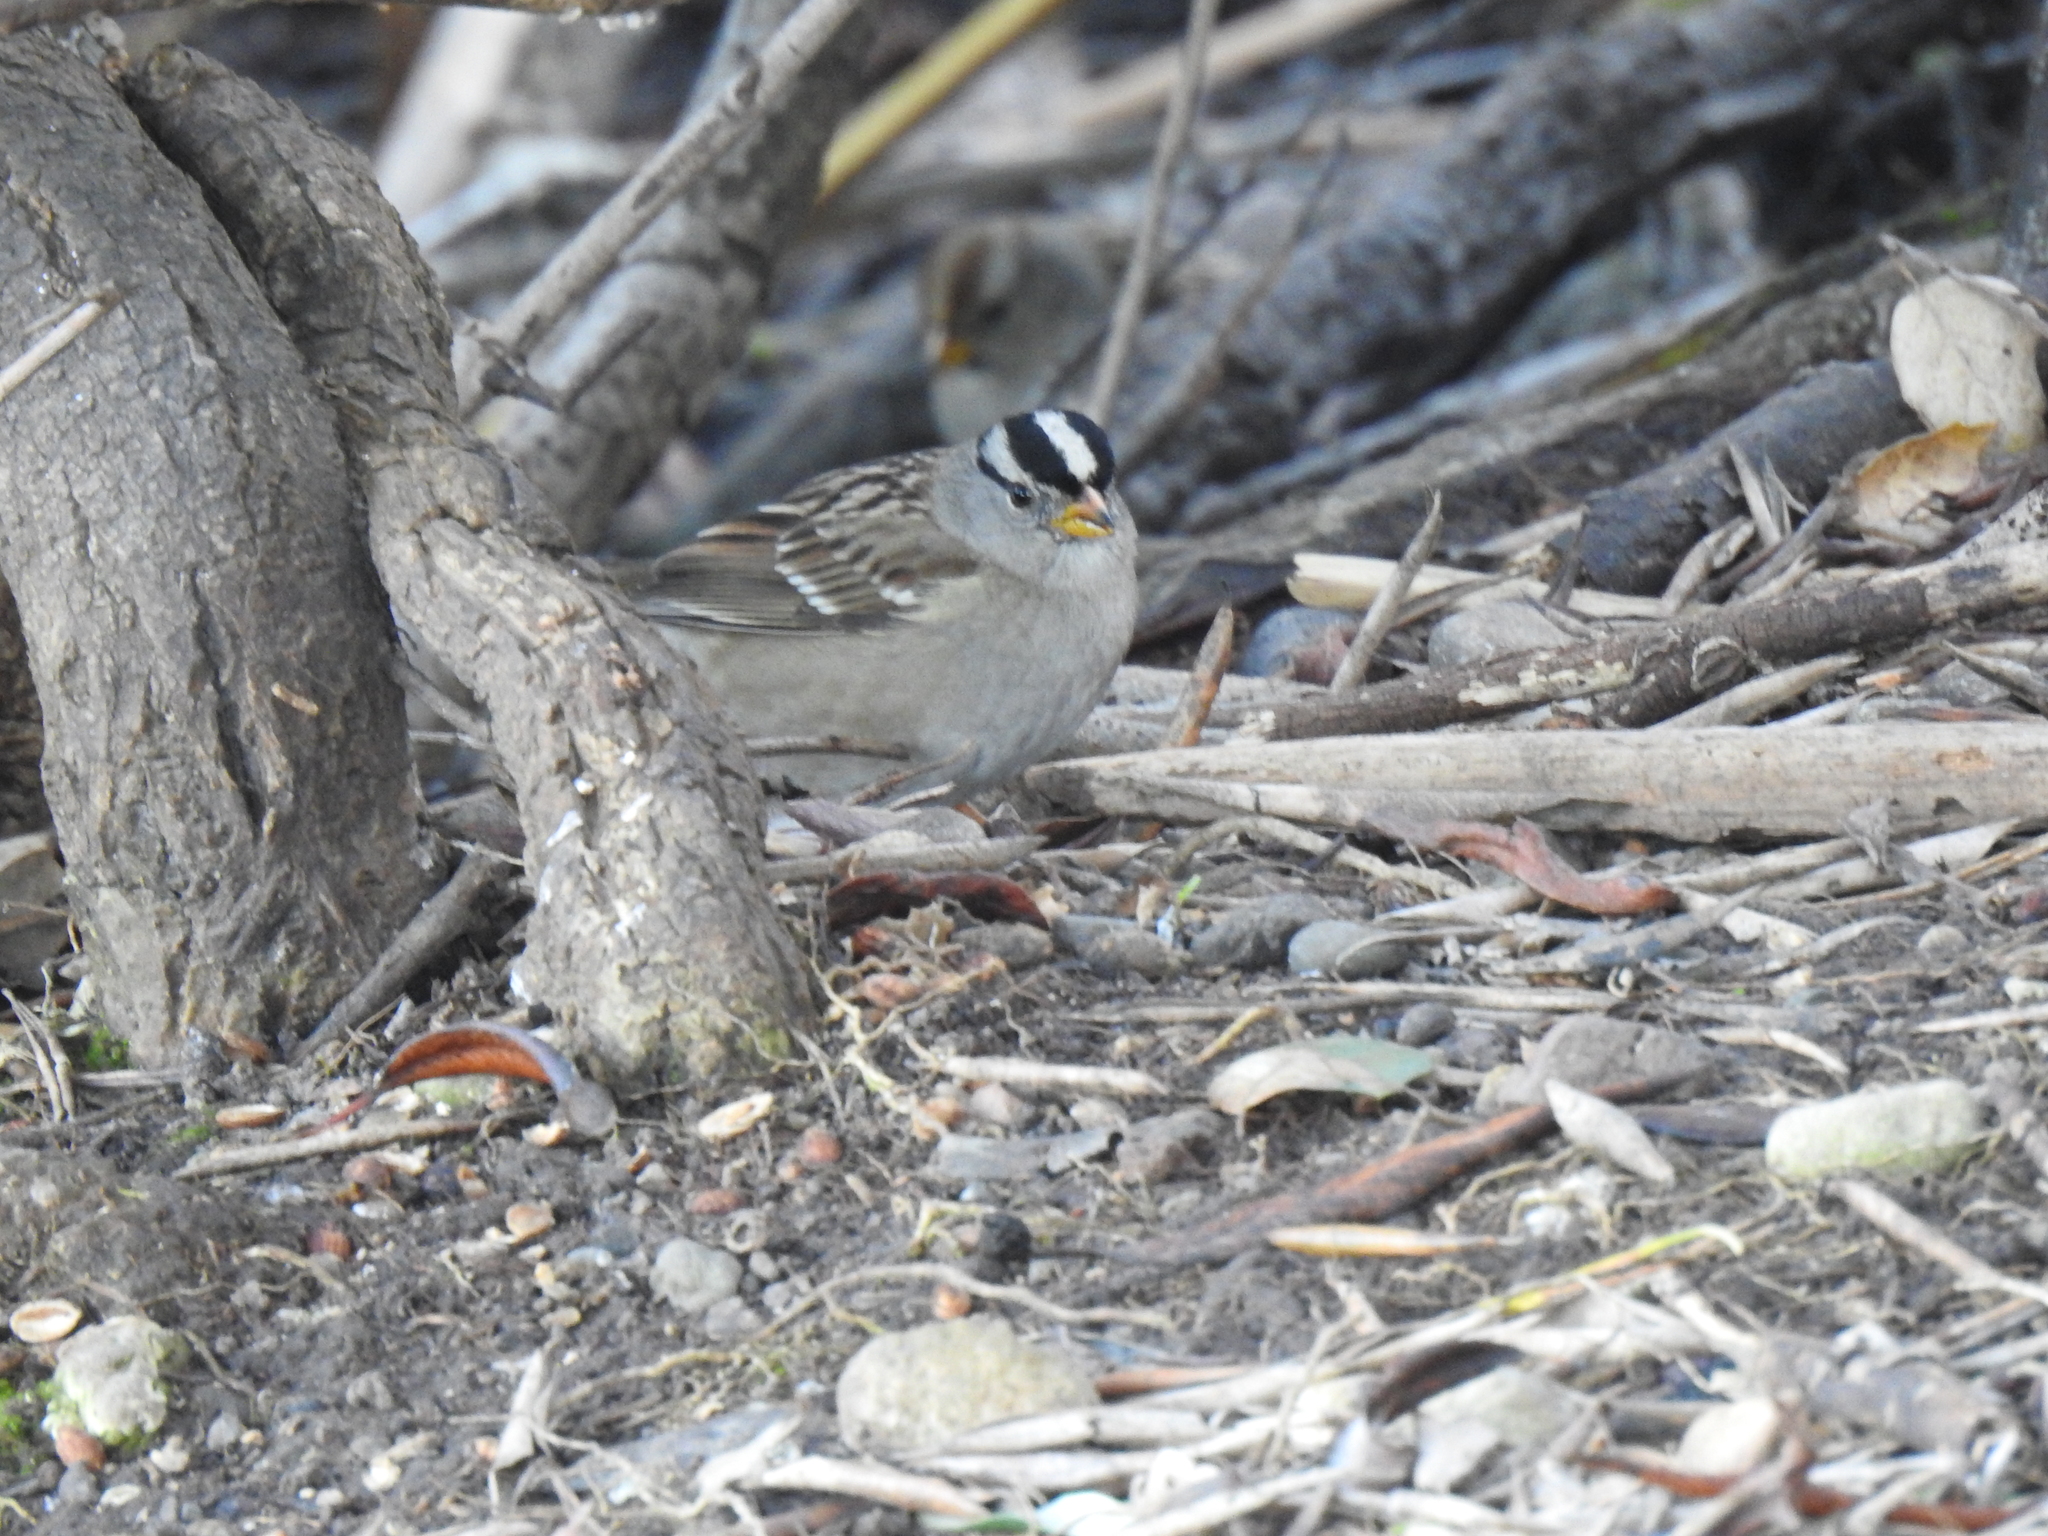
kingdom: Animalia
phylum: Chordata
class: Aves
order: Passeriformes
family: Passerellidae
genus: Zonotrichia
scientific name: Zonotrichia leucophrys
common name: White-crowned sparrow
